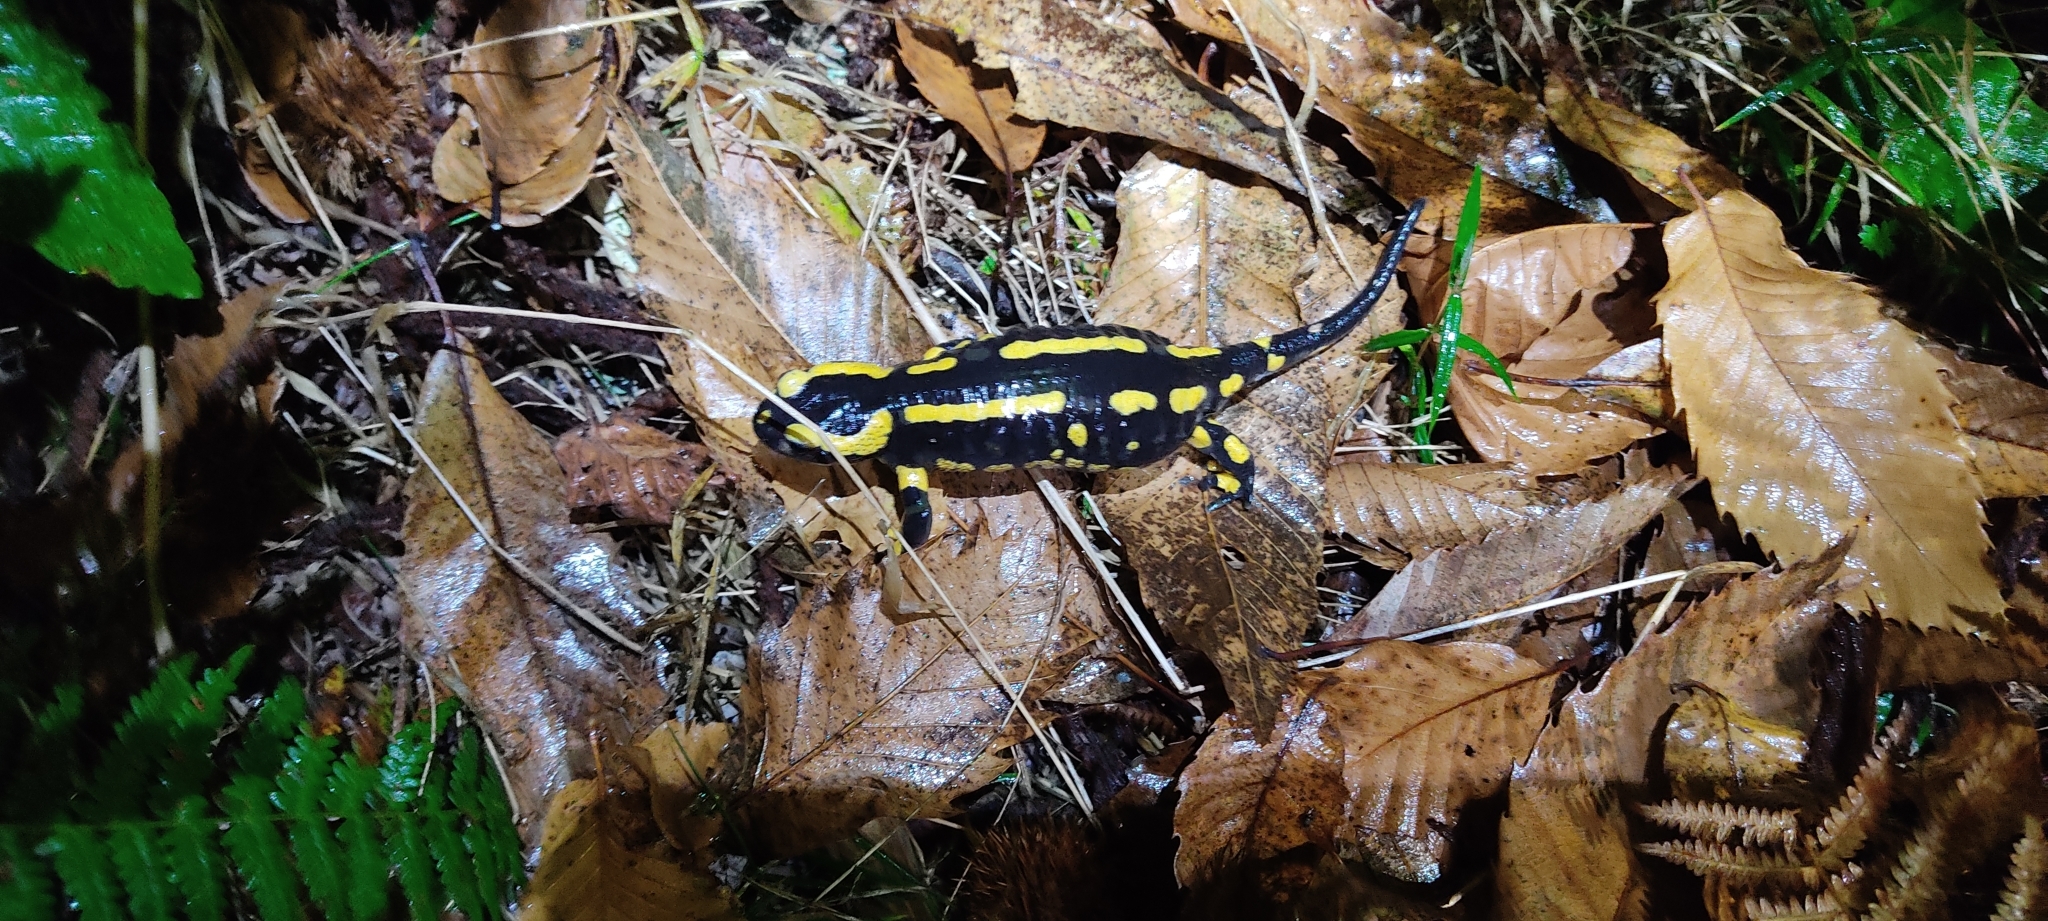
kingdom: Animalia
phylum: Chordata
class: Amphibia
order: Caudata
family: Salamandridae
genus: Salamandra
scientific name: Salamandra salamandra
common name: Fire salamander
